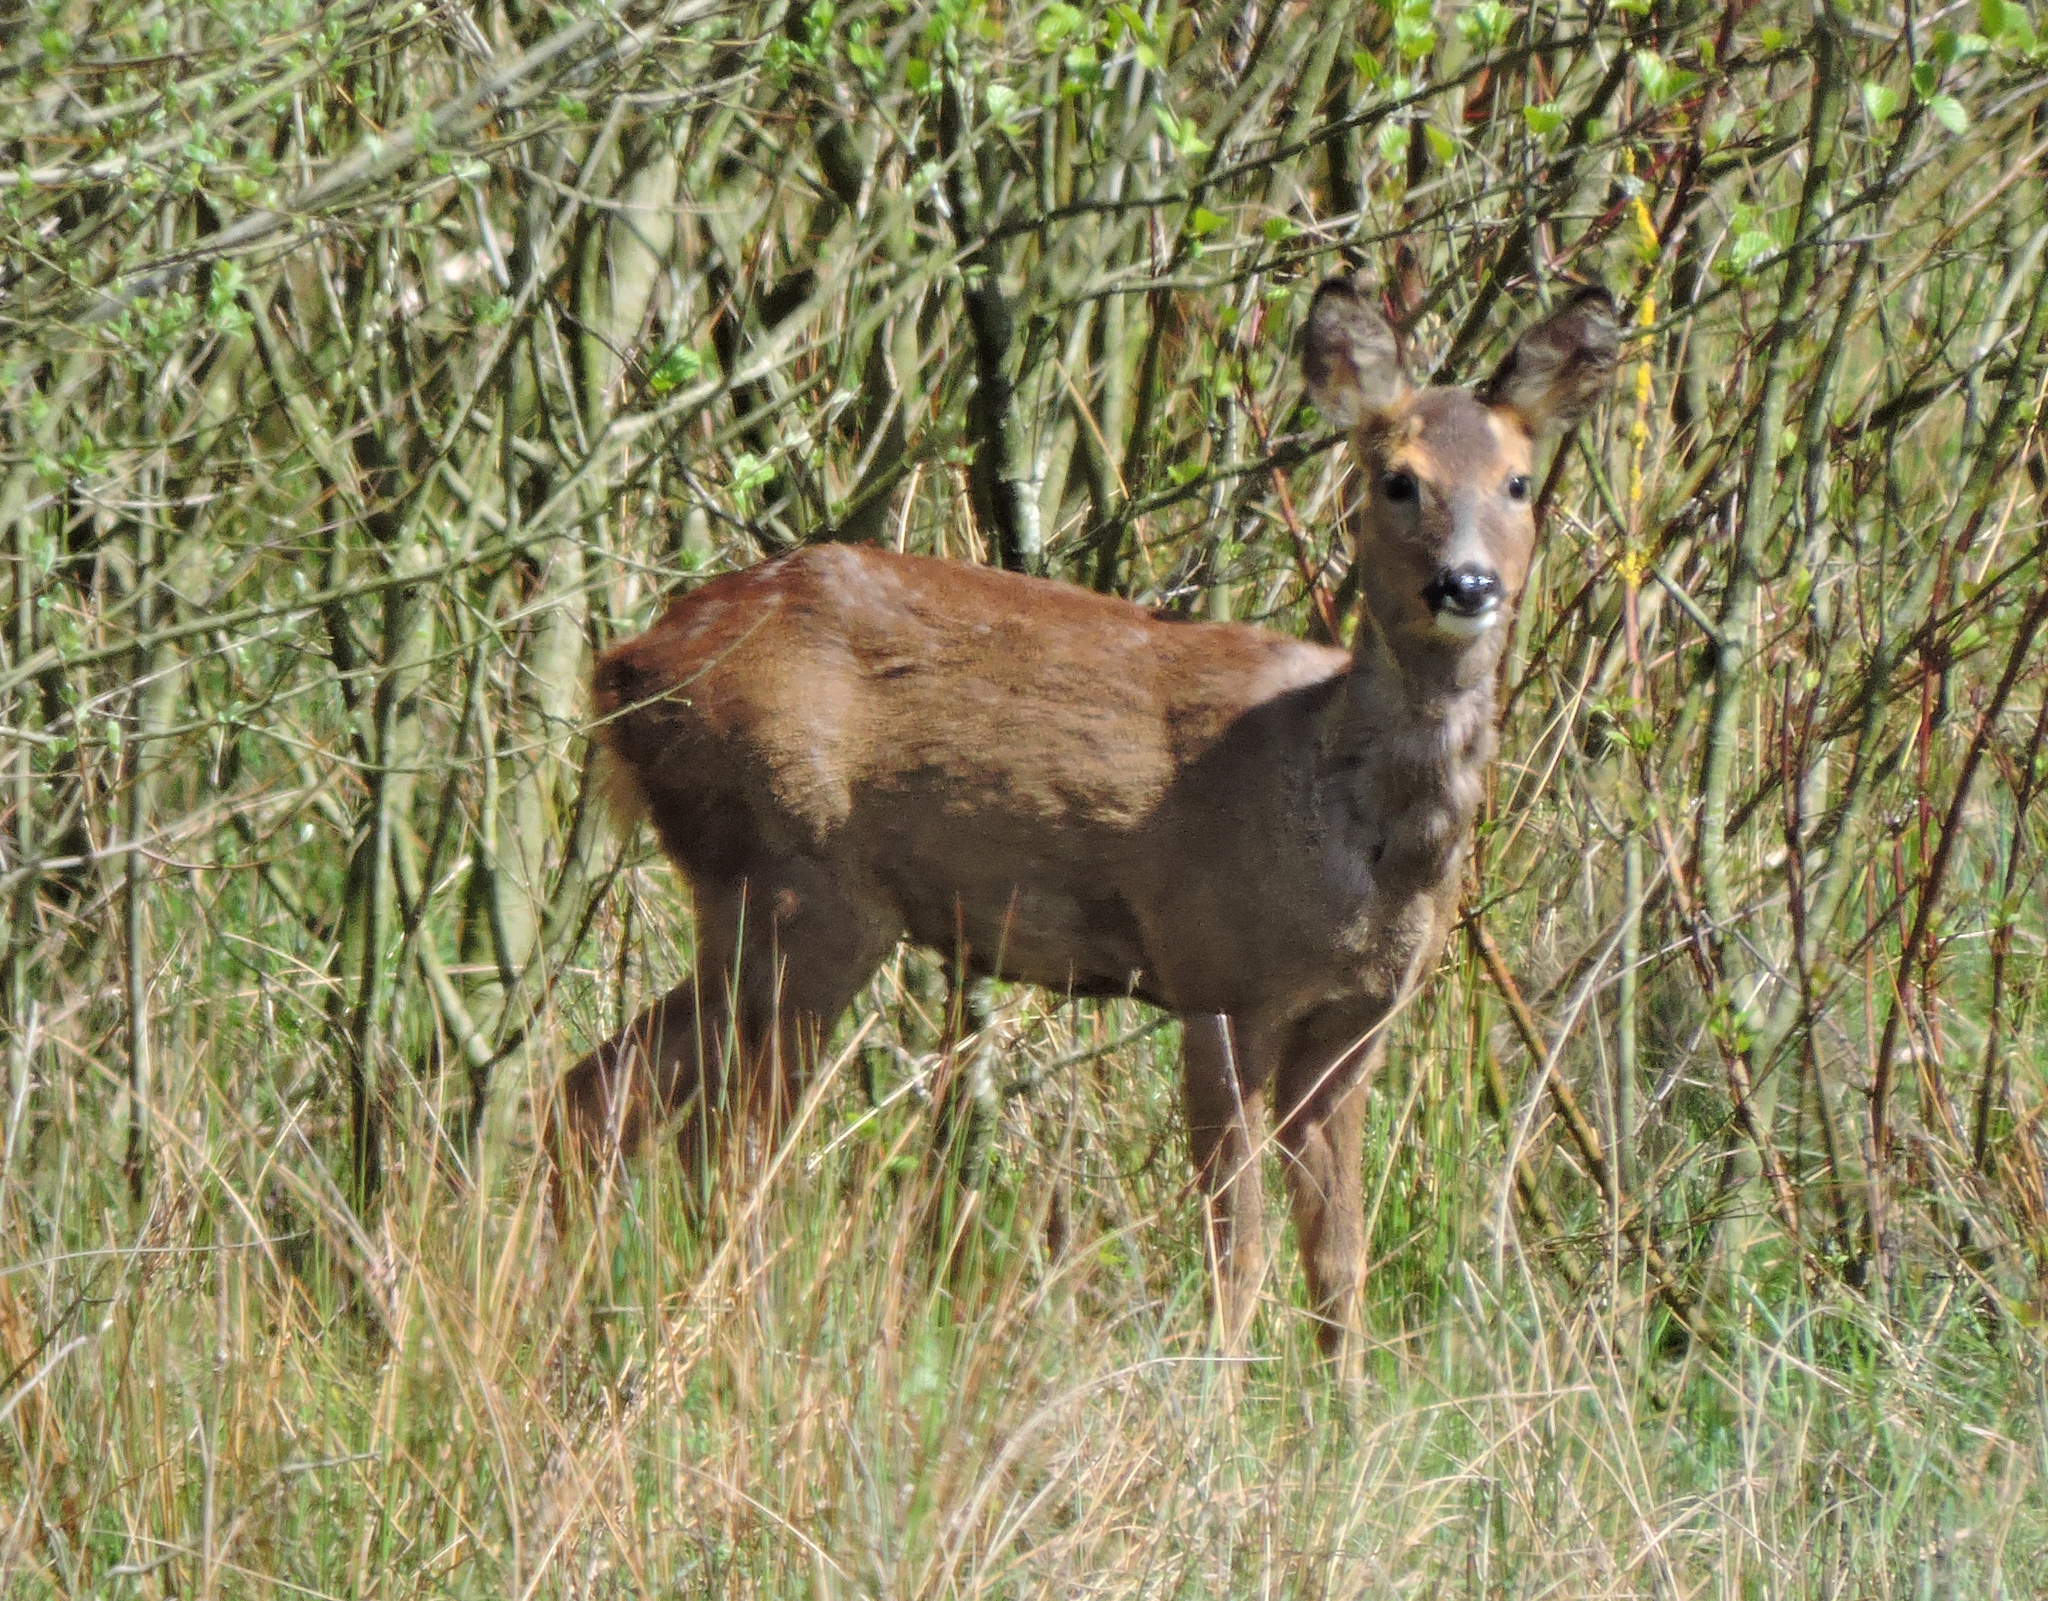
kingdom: Animalia
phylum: Chordata
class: Mammalia
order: Artiodactyla
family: Cervidae
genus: Capreolus
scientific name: Capreolus capreolus
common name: Western roe deer
